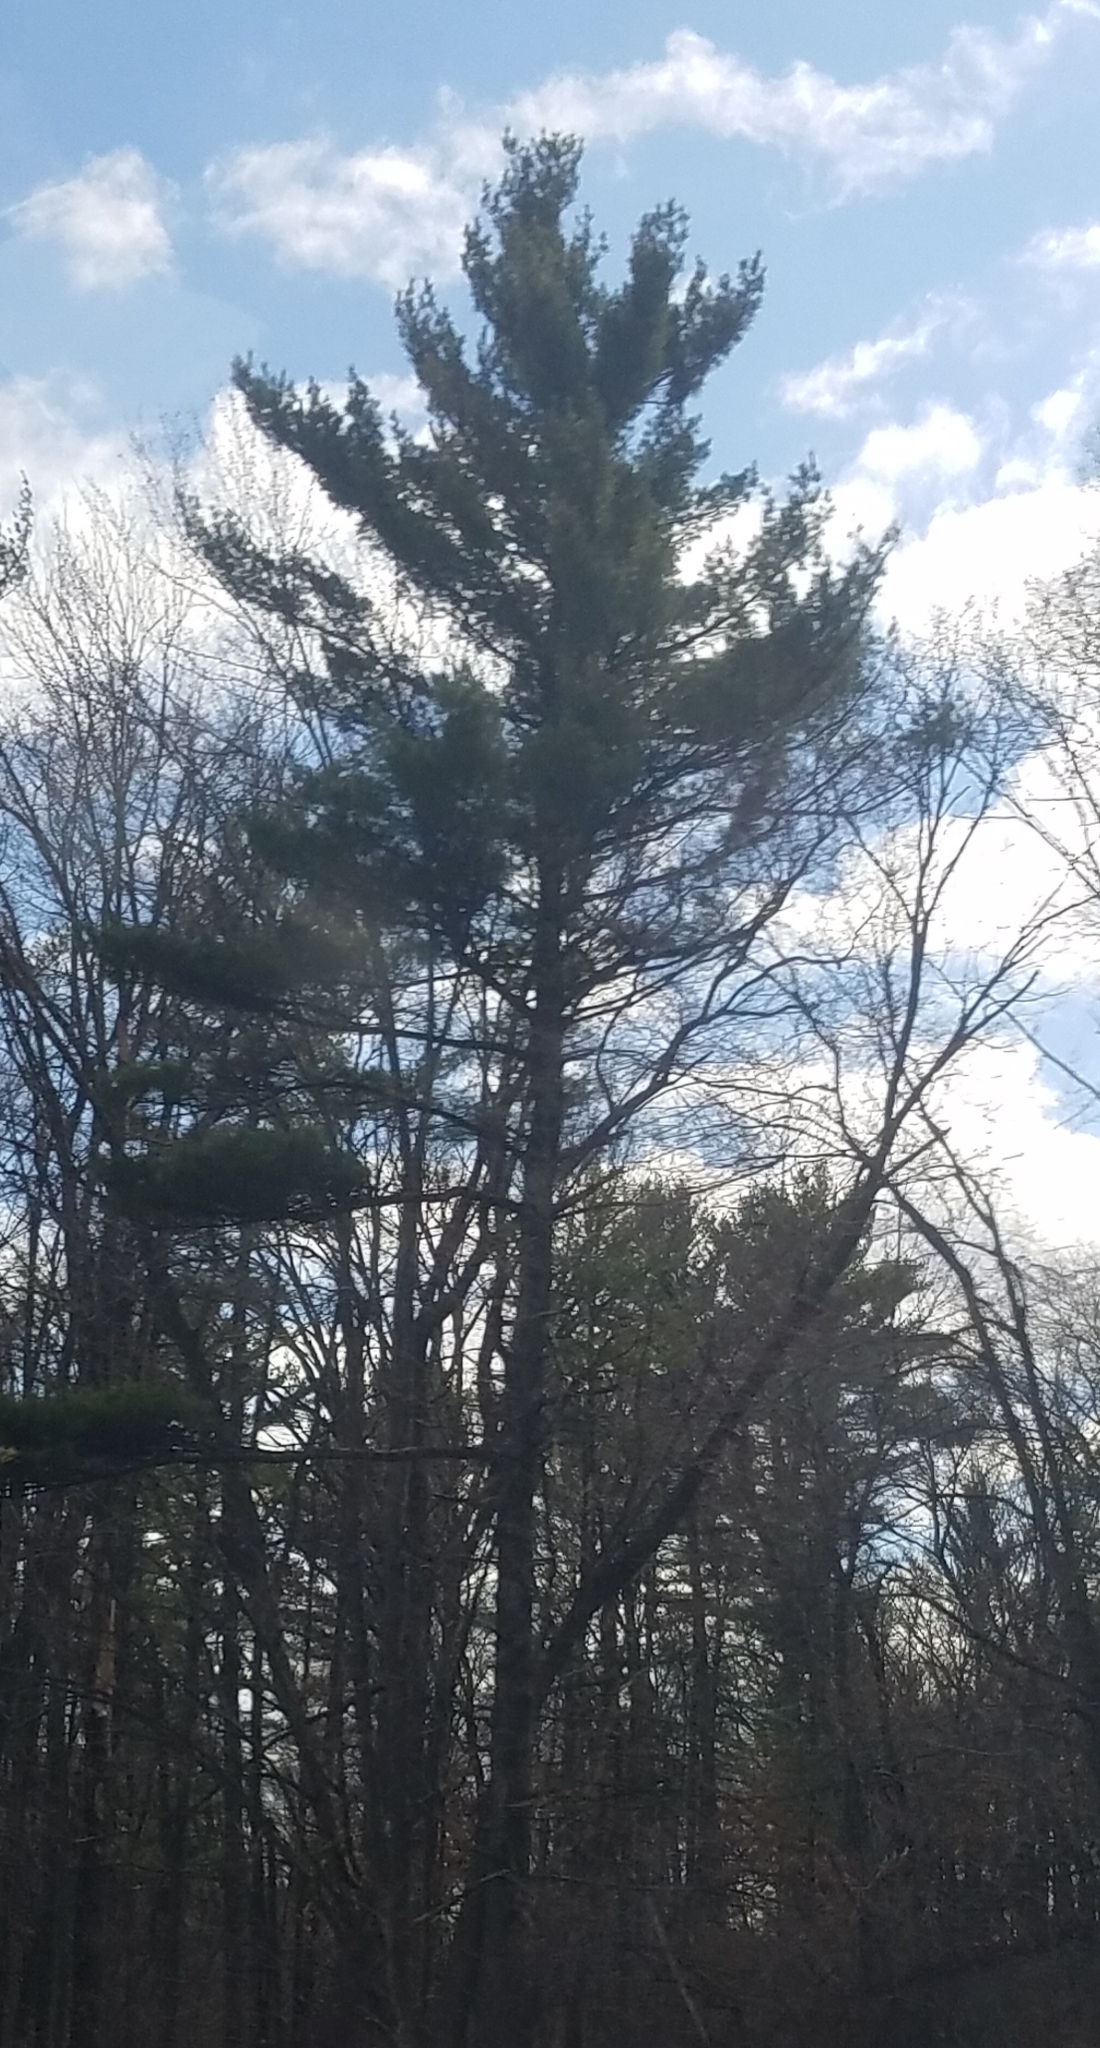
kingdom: Plantae
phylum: Tracheophyta
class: Pinopsida
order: Pinales
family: Pinaceae
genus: Pinus
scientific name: Pinus strobus
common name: Weymouth pine
